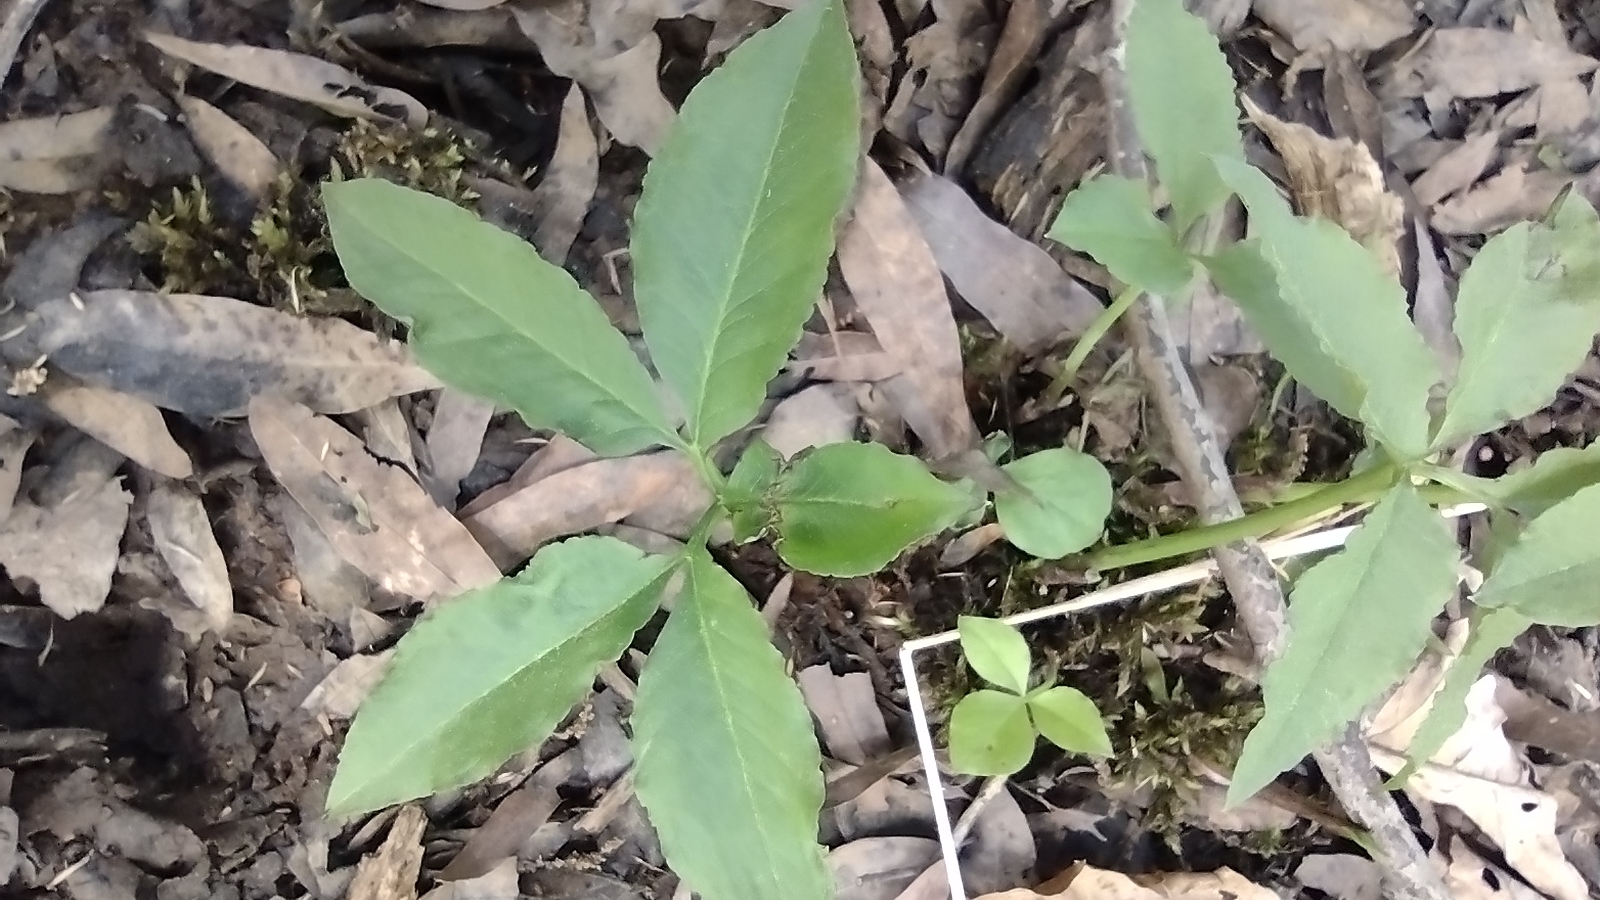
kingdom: Plantae
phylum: Tracheophyta
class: Liliopsida
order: Alismatales
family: Araceae
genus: Arisaema
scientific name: Arisaema dracontium
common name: Dragon-arum
